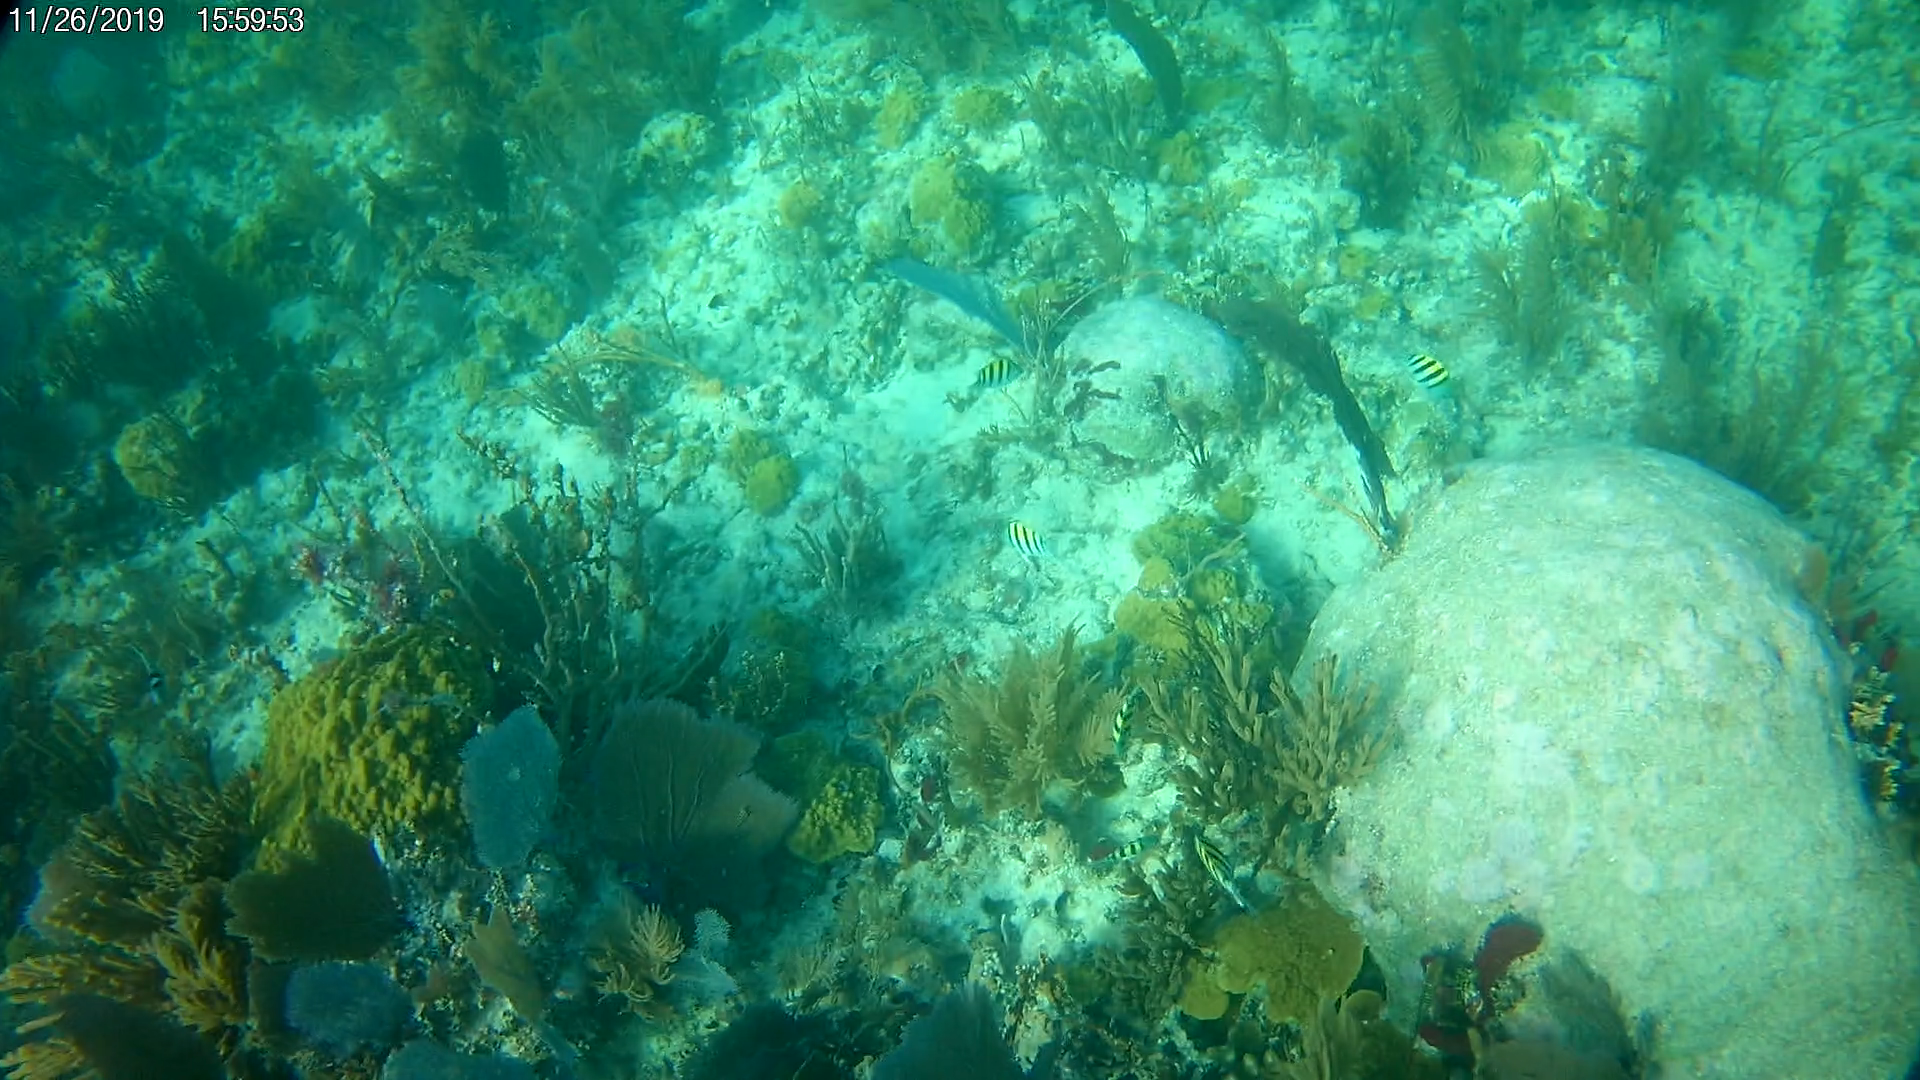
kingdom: Animalia
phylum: Chordata
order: Perciformes
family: Pomacentridae
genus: Abudefduf
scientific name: Abudefduf saxatilis
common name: Sergeant major
